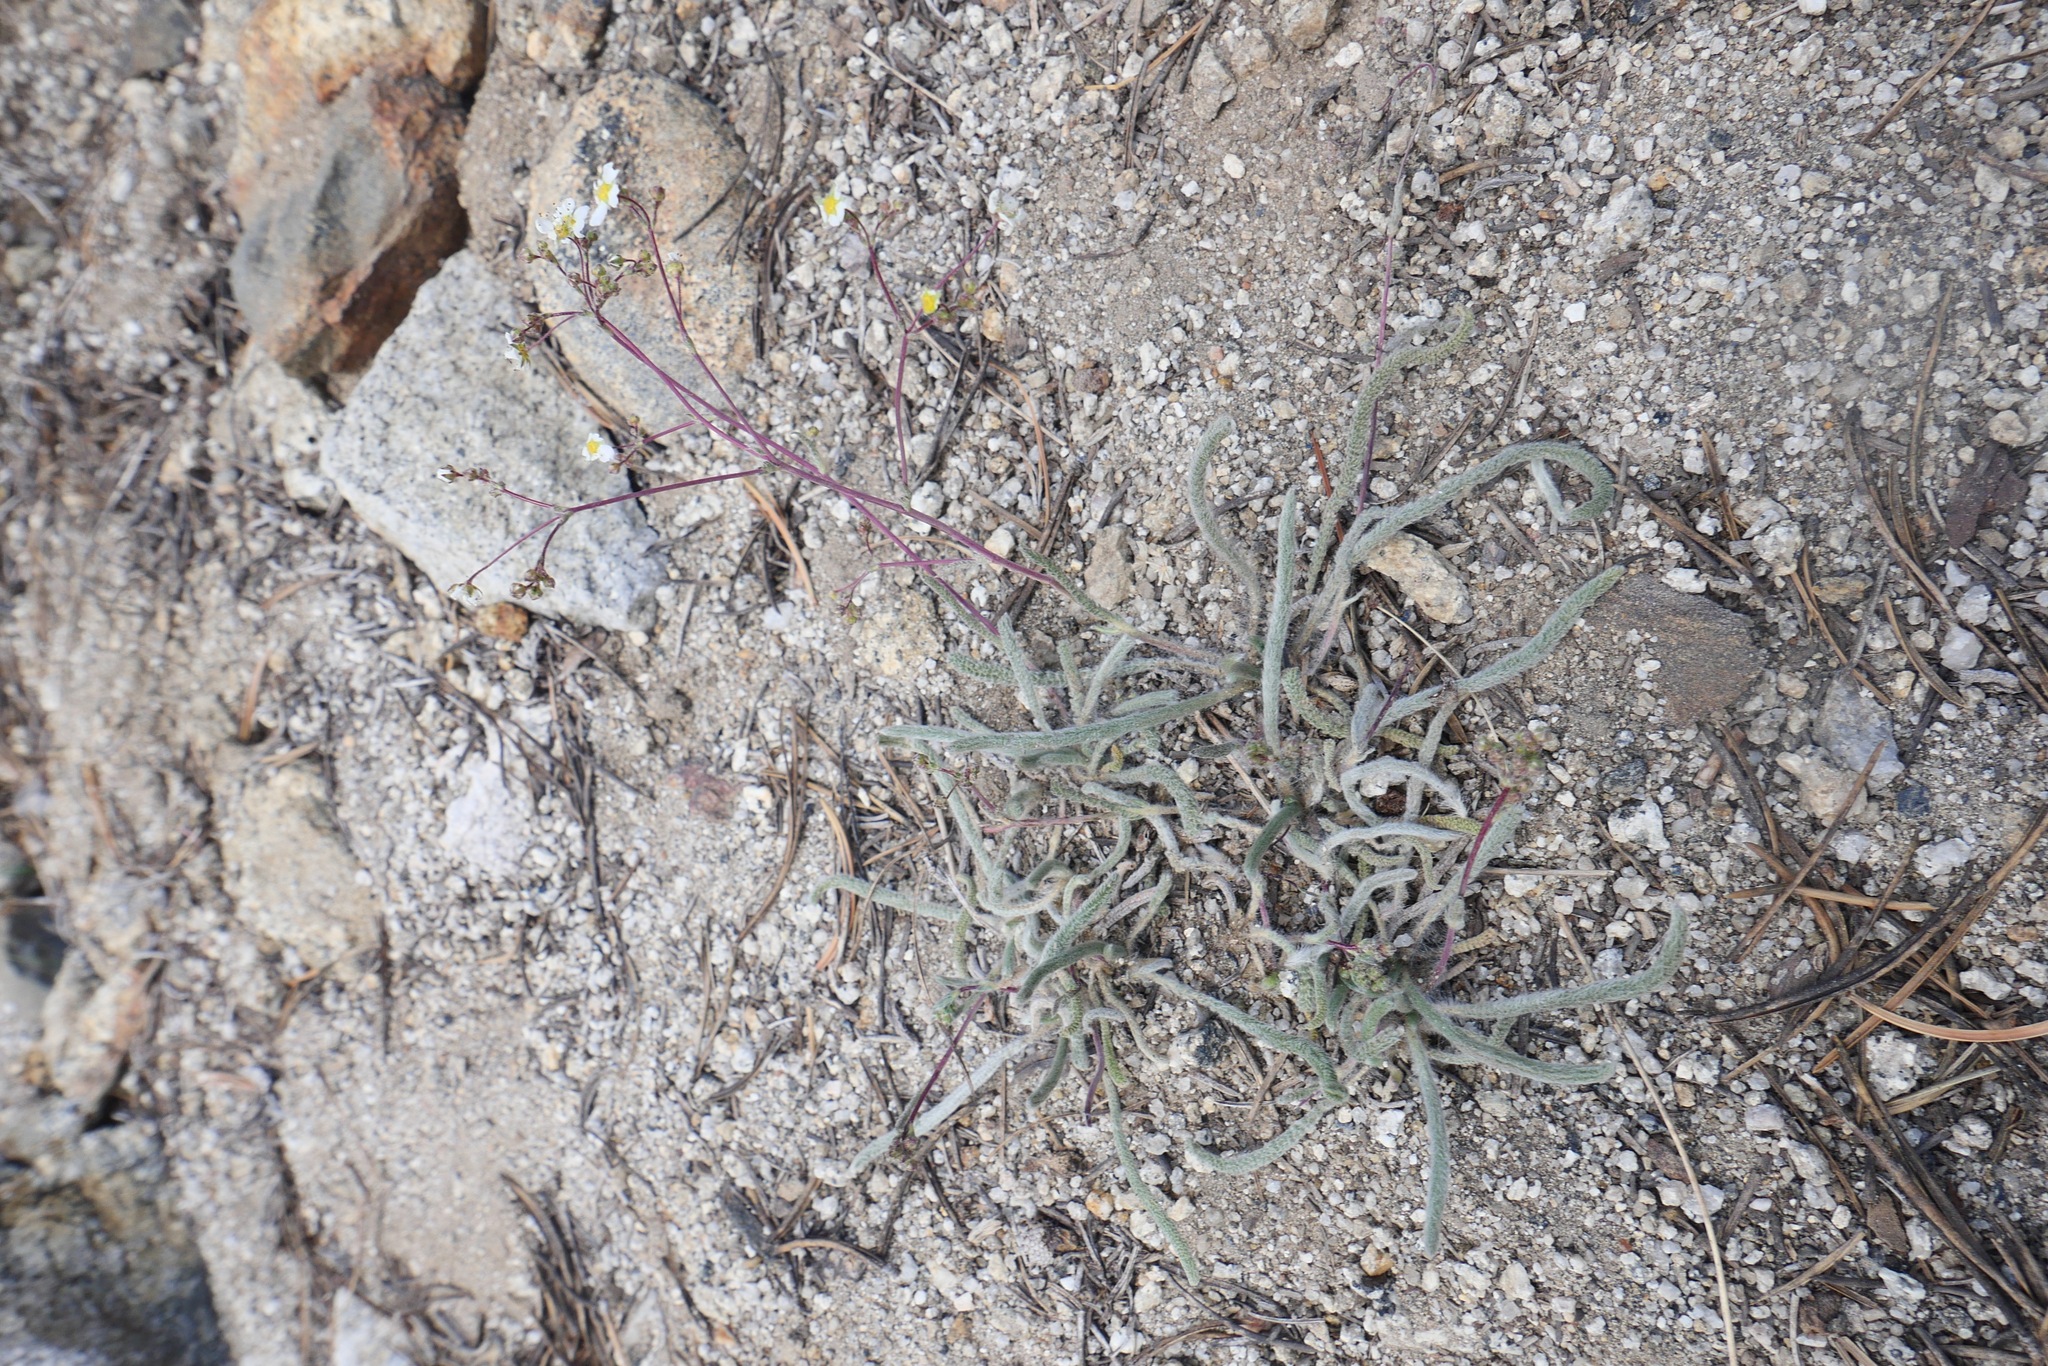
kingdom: Plantae
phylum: Tracheophyta
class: Magnoliopsida
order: Rosales
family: Rosaceae
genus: Potentilla
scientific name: Potentilla santolinoides
